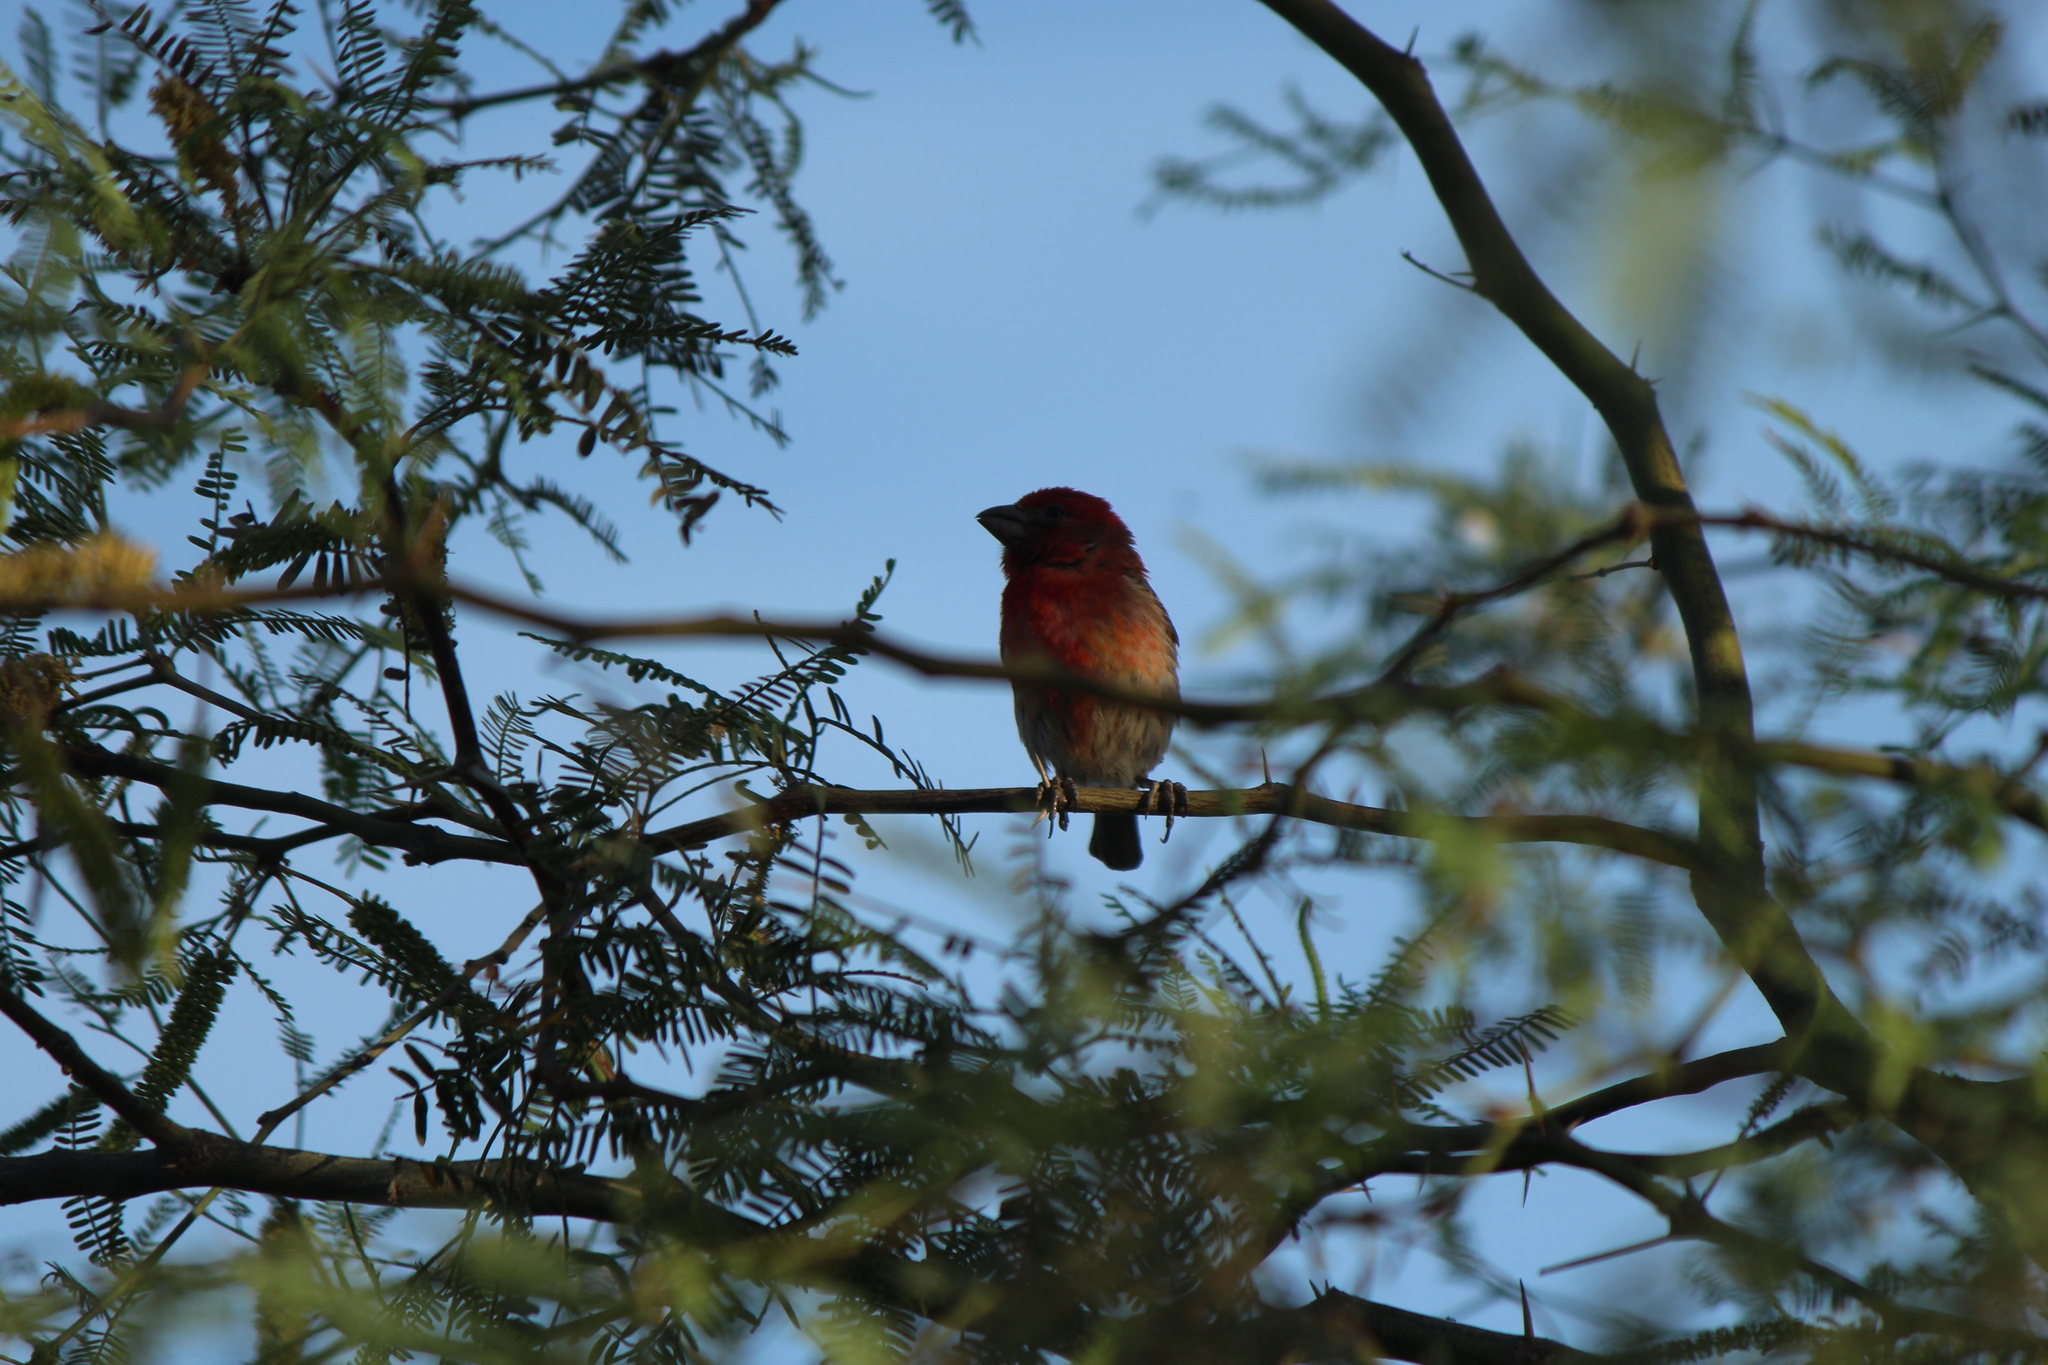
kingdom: Animalia
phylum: Chordata
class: Aves
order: Passeriformes
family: Fringillidae
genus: Haemorhous
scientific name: Haemorhous mexicanus
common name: House finch
